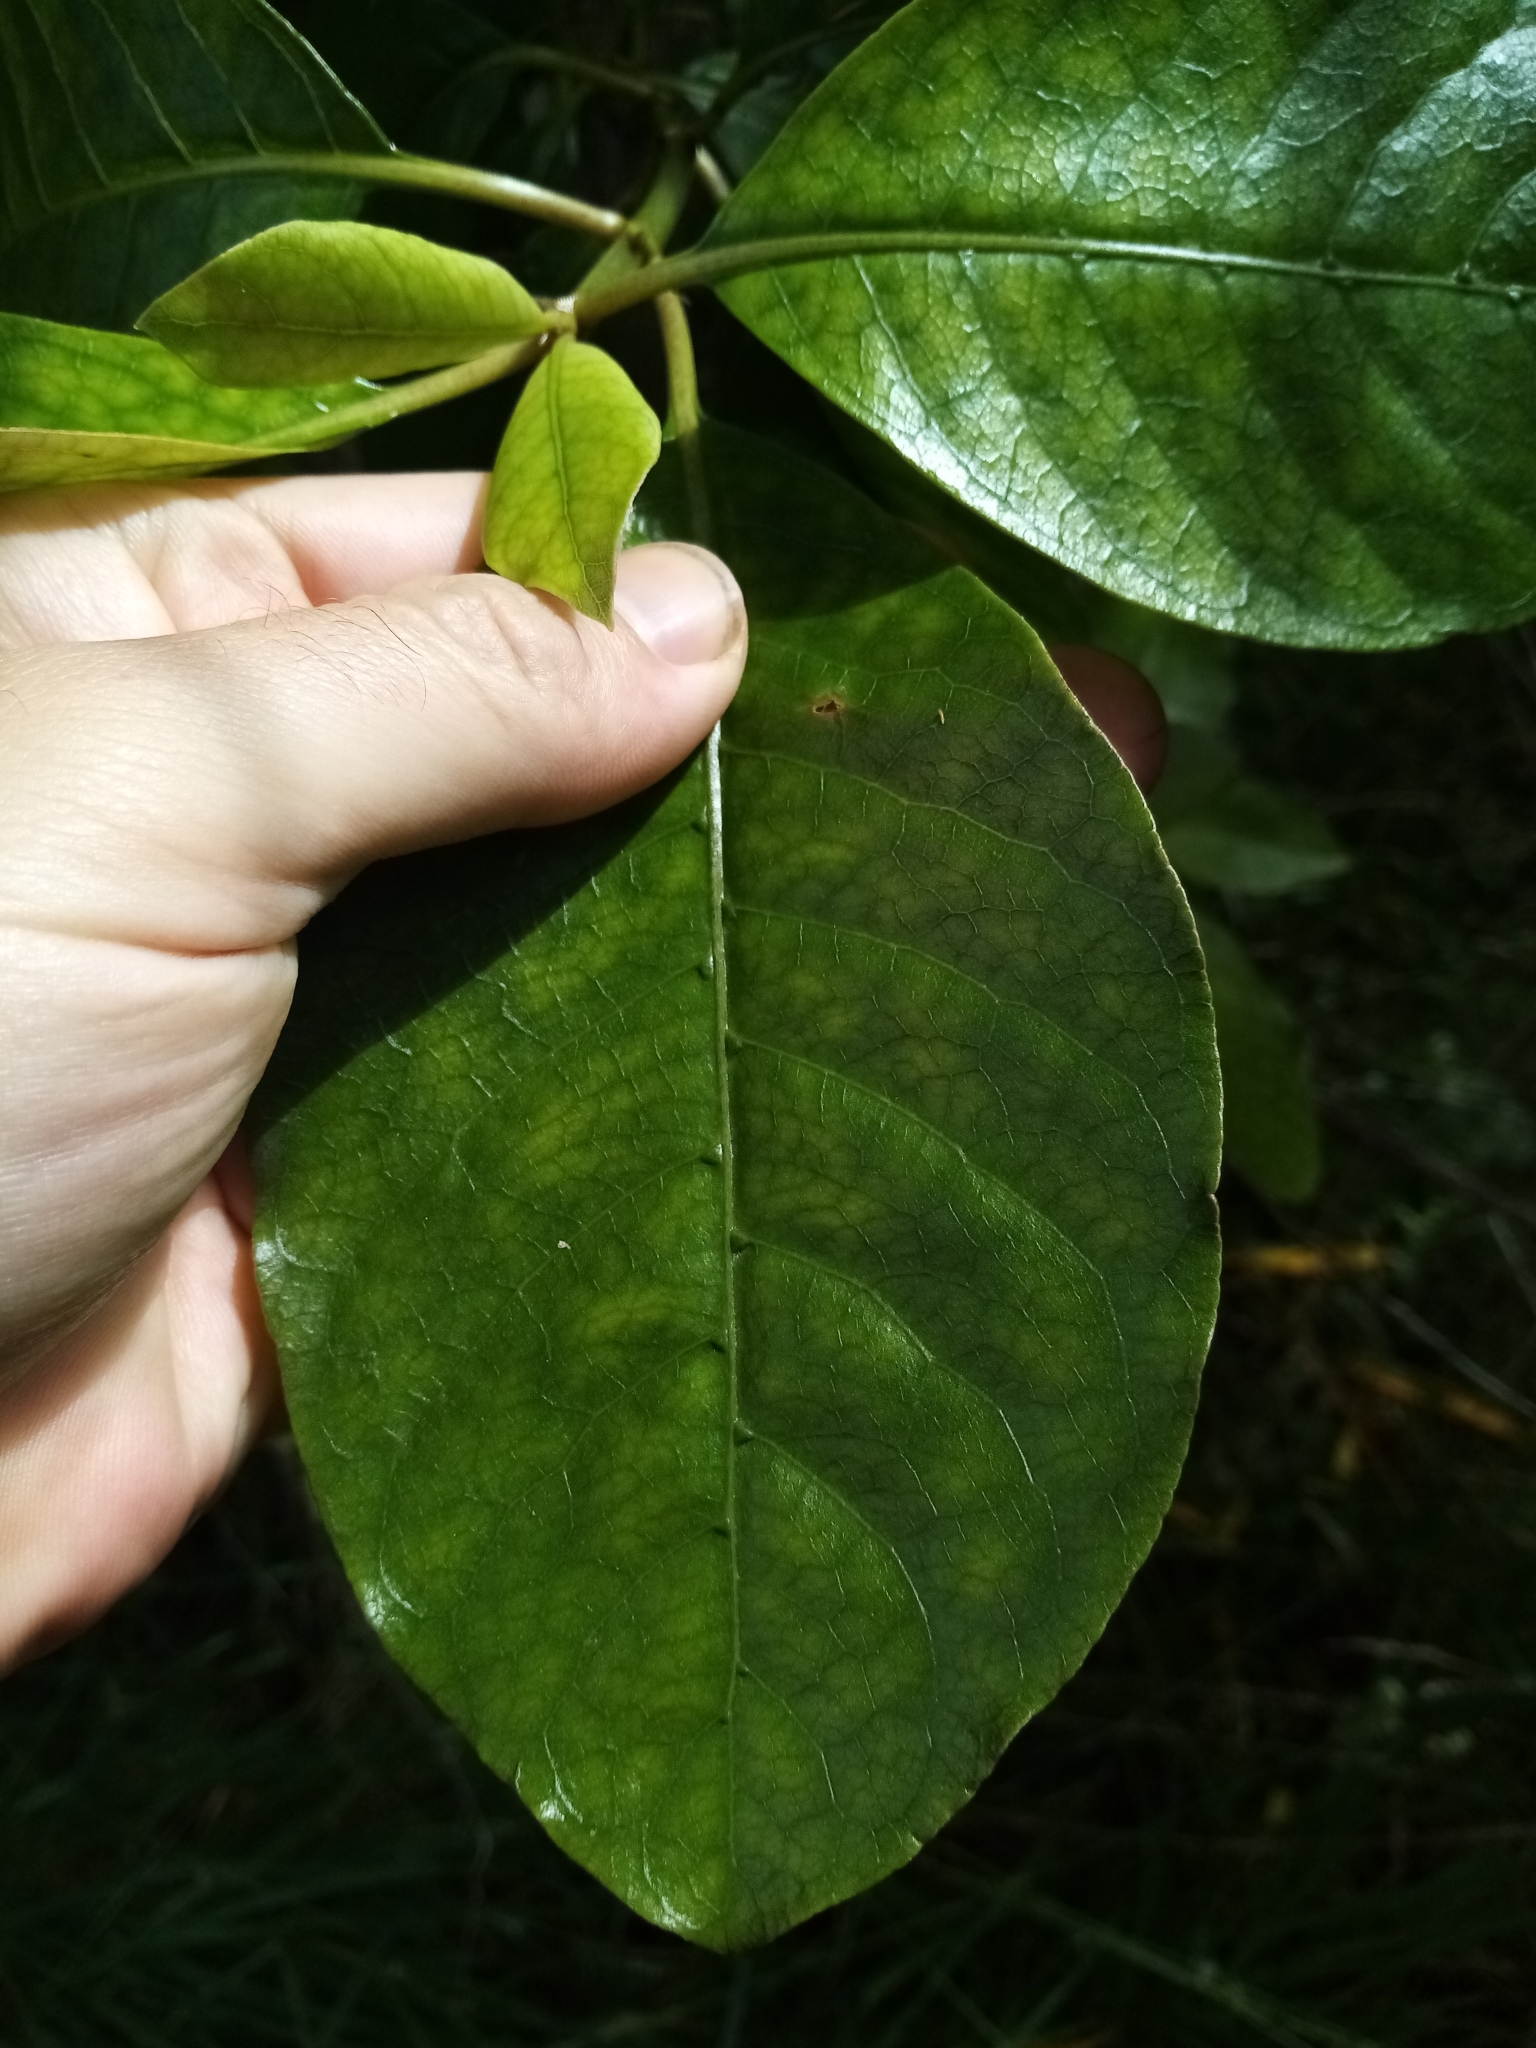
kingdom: Plantae
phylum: Tracheophyta
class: Magnoliopsida
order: Gentianales
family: Rubiaceae
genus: Coprosma
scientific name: Coprosma autumnalis
